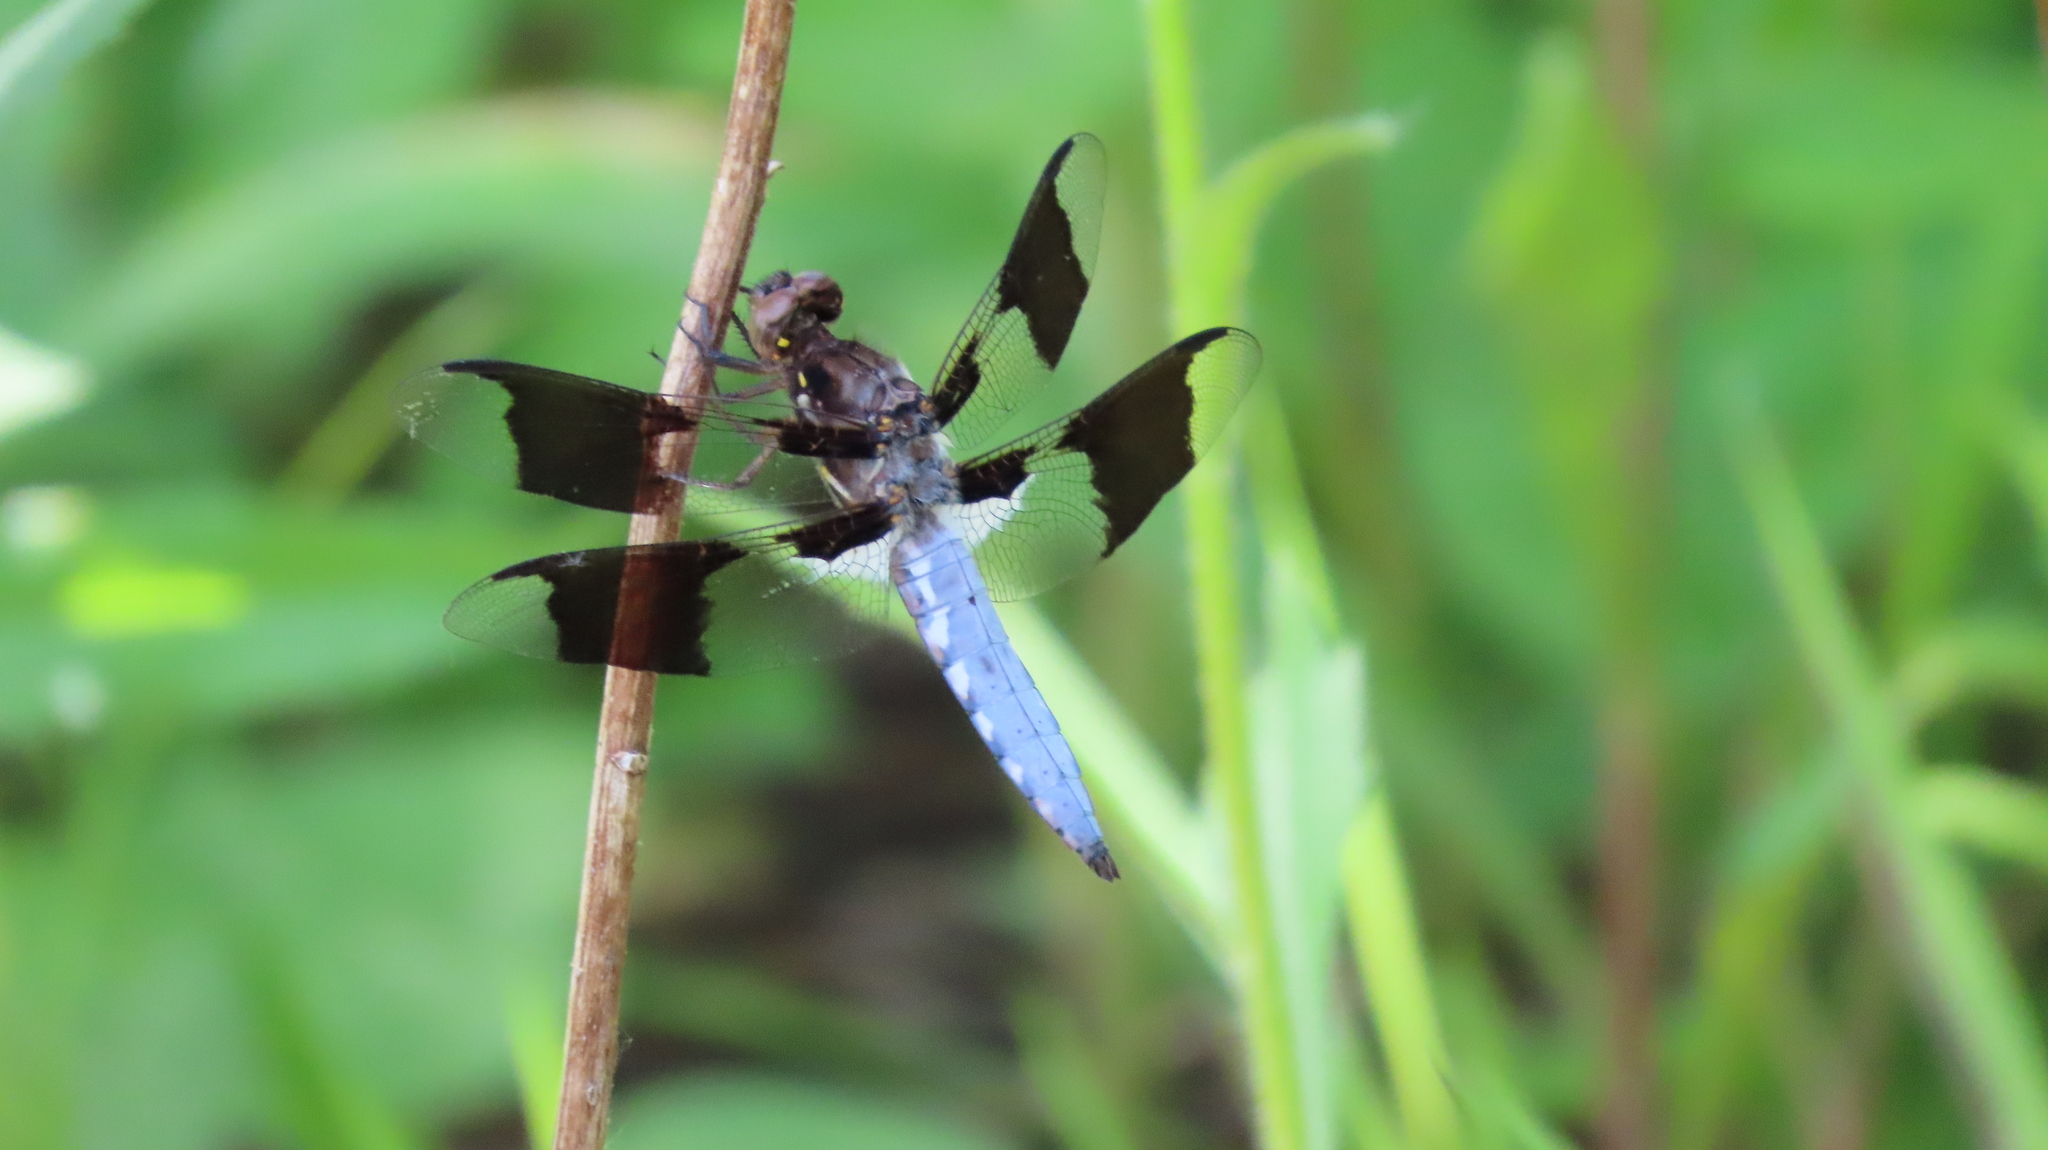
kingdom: Animalia
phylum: Arthropoda
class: Insecta
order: Odonata
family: Libellulidae
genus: Plathemis
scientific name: Plathemis lydia
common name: Common whitetail
